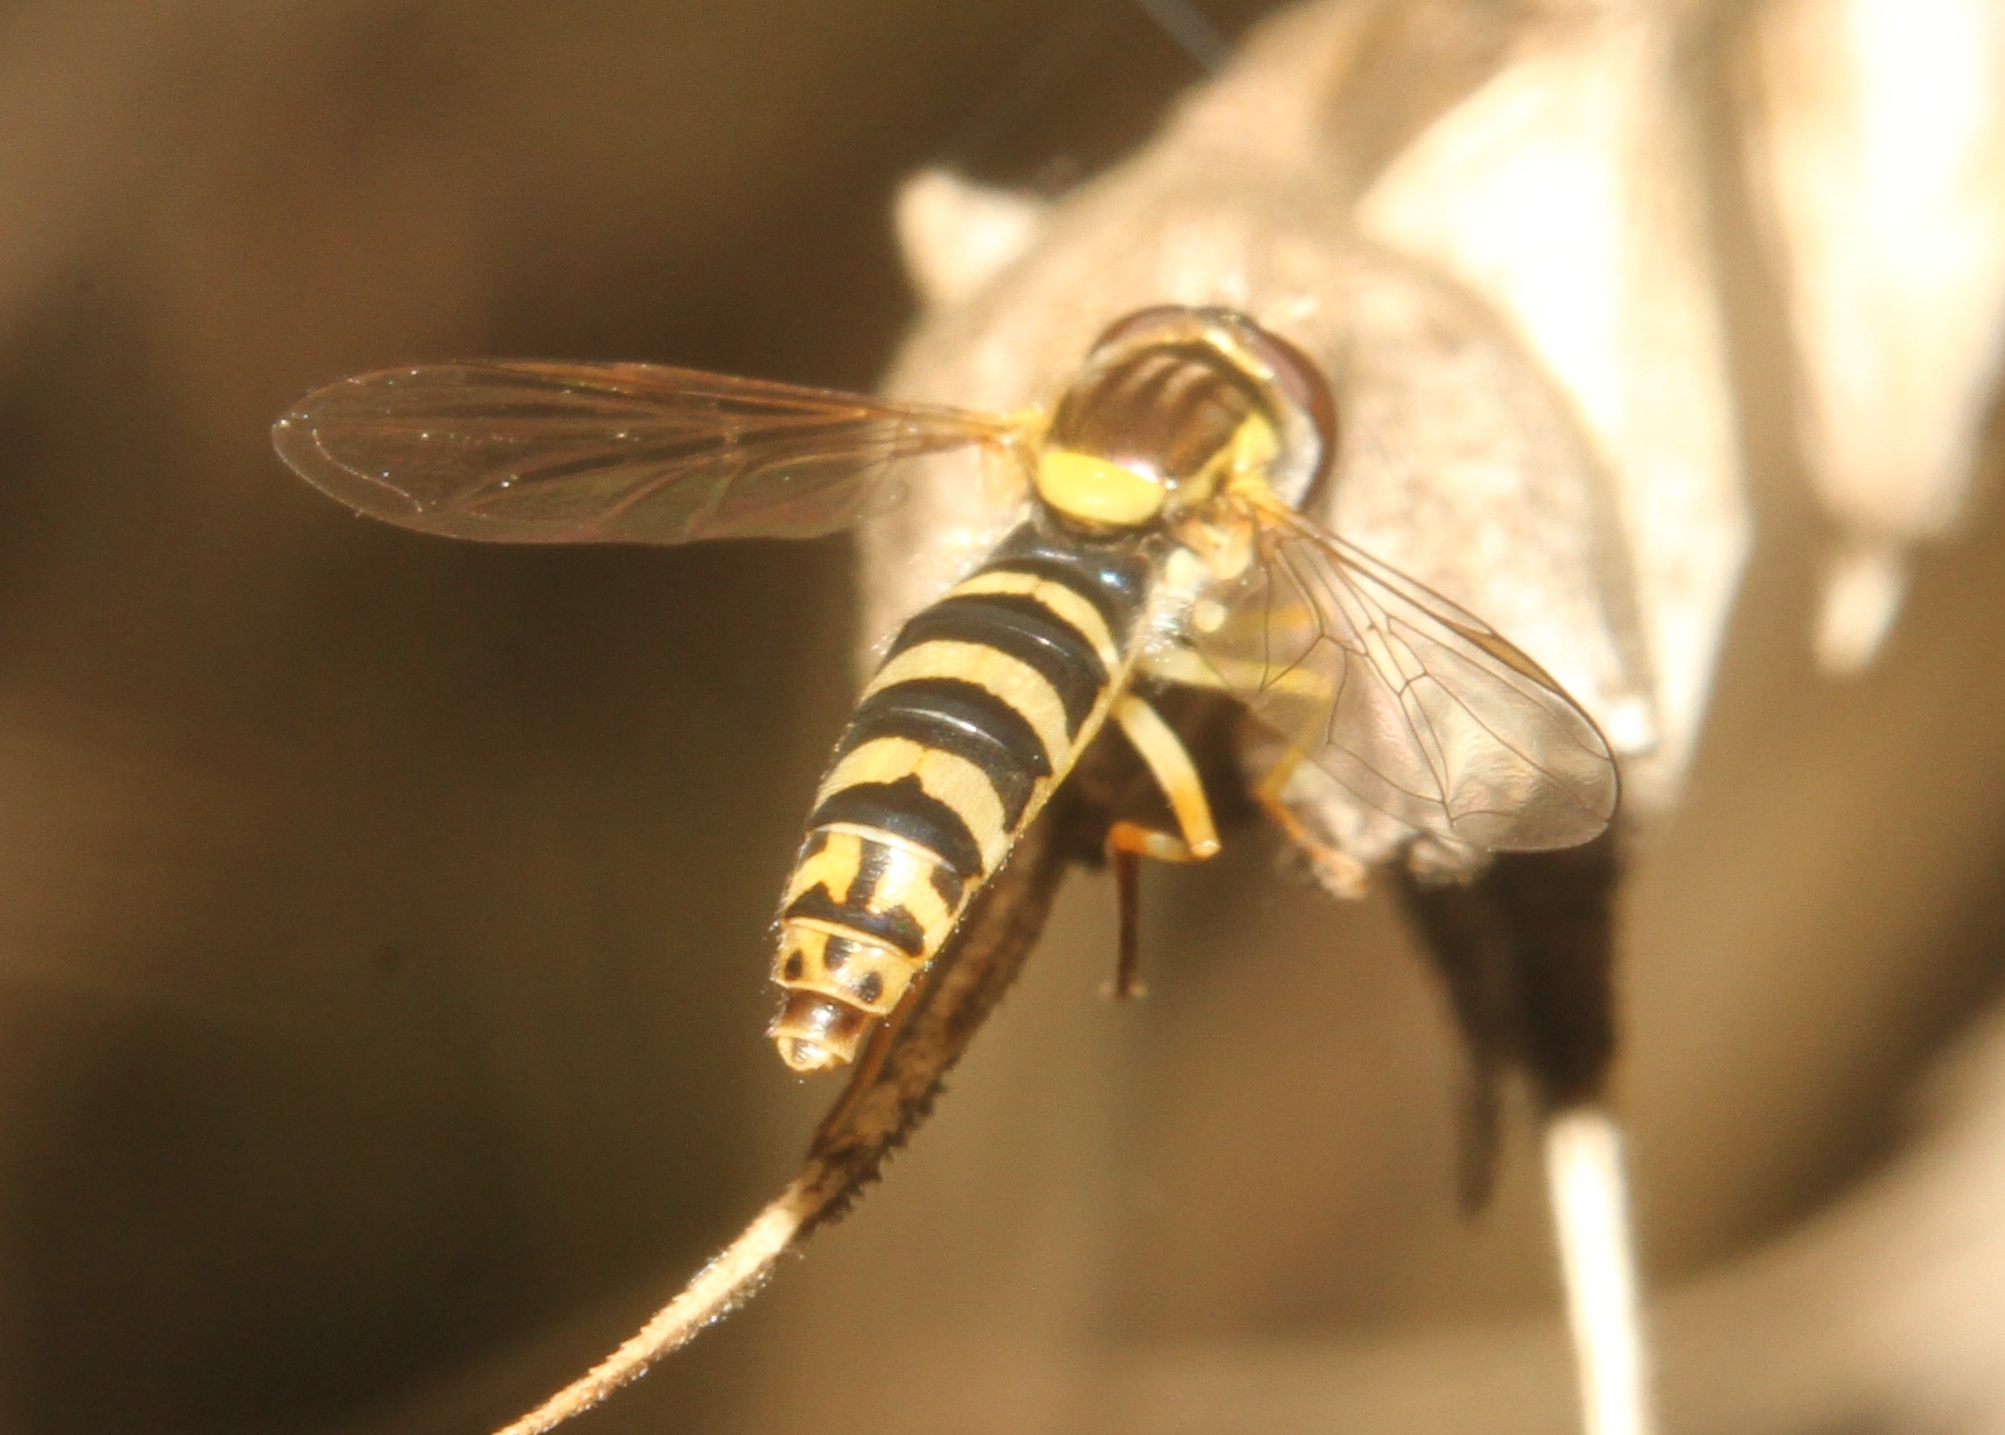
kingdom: Animalia
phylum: Arthropoda
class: Insecta
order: Diptera
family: Syrphidae
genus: Sphaerophoria
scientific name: Sphaerophoria
